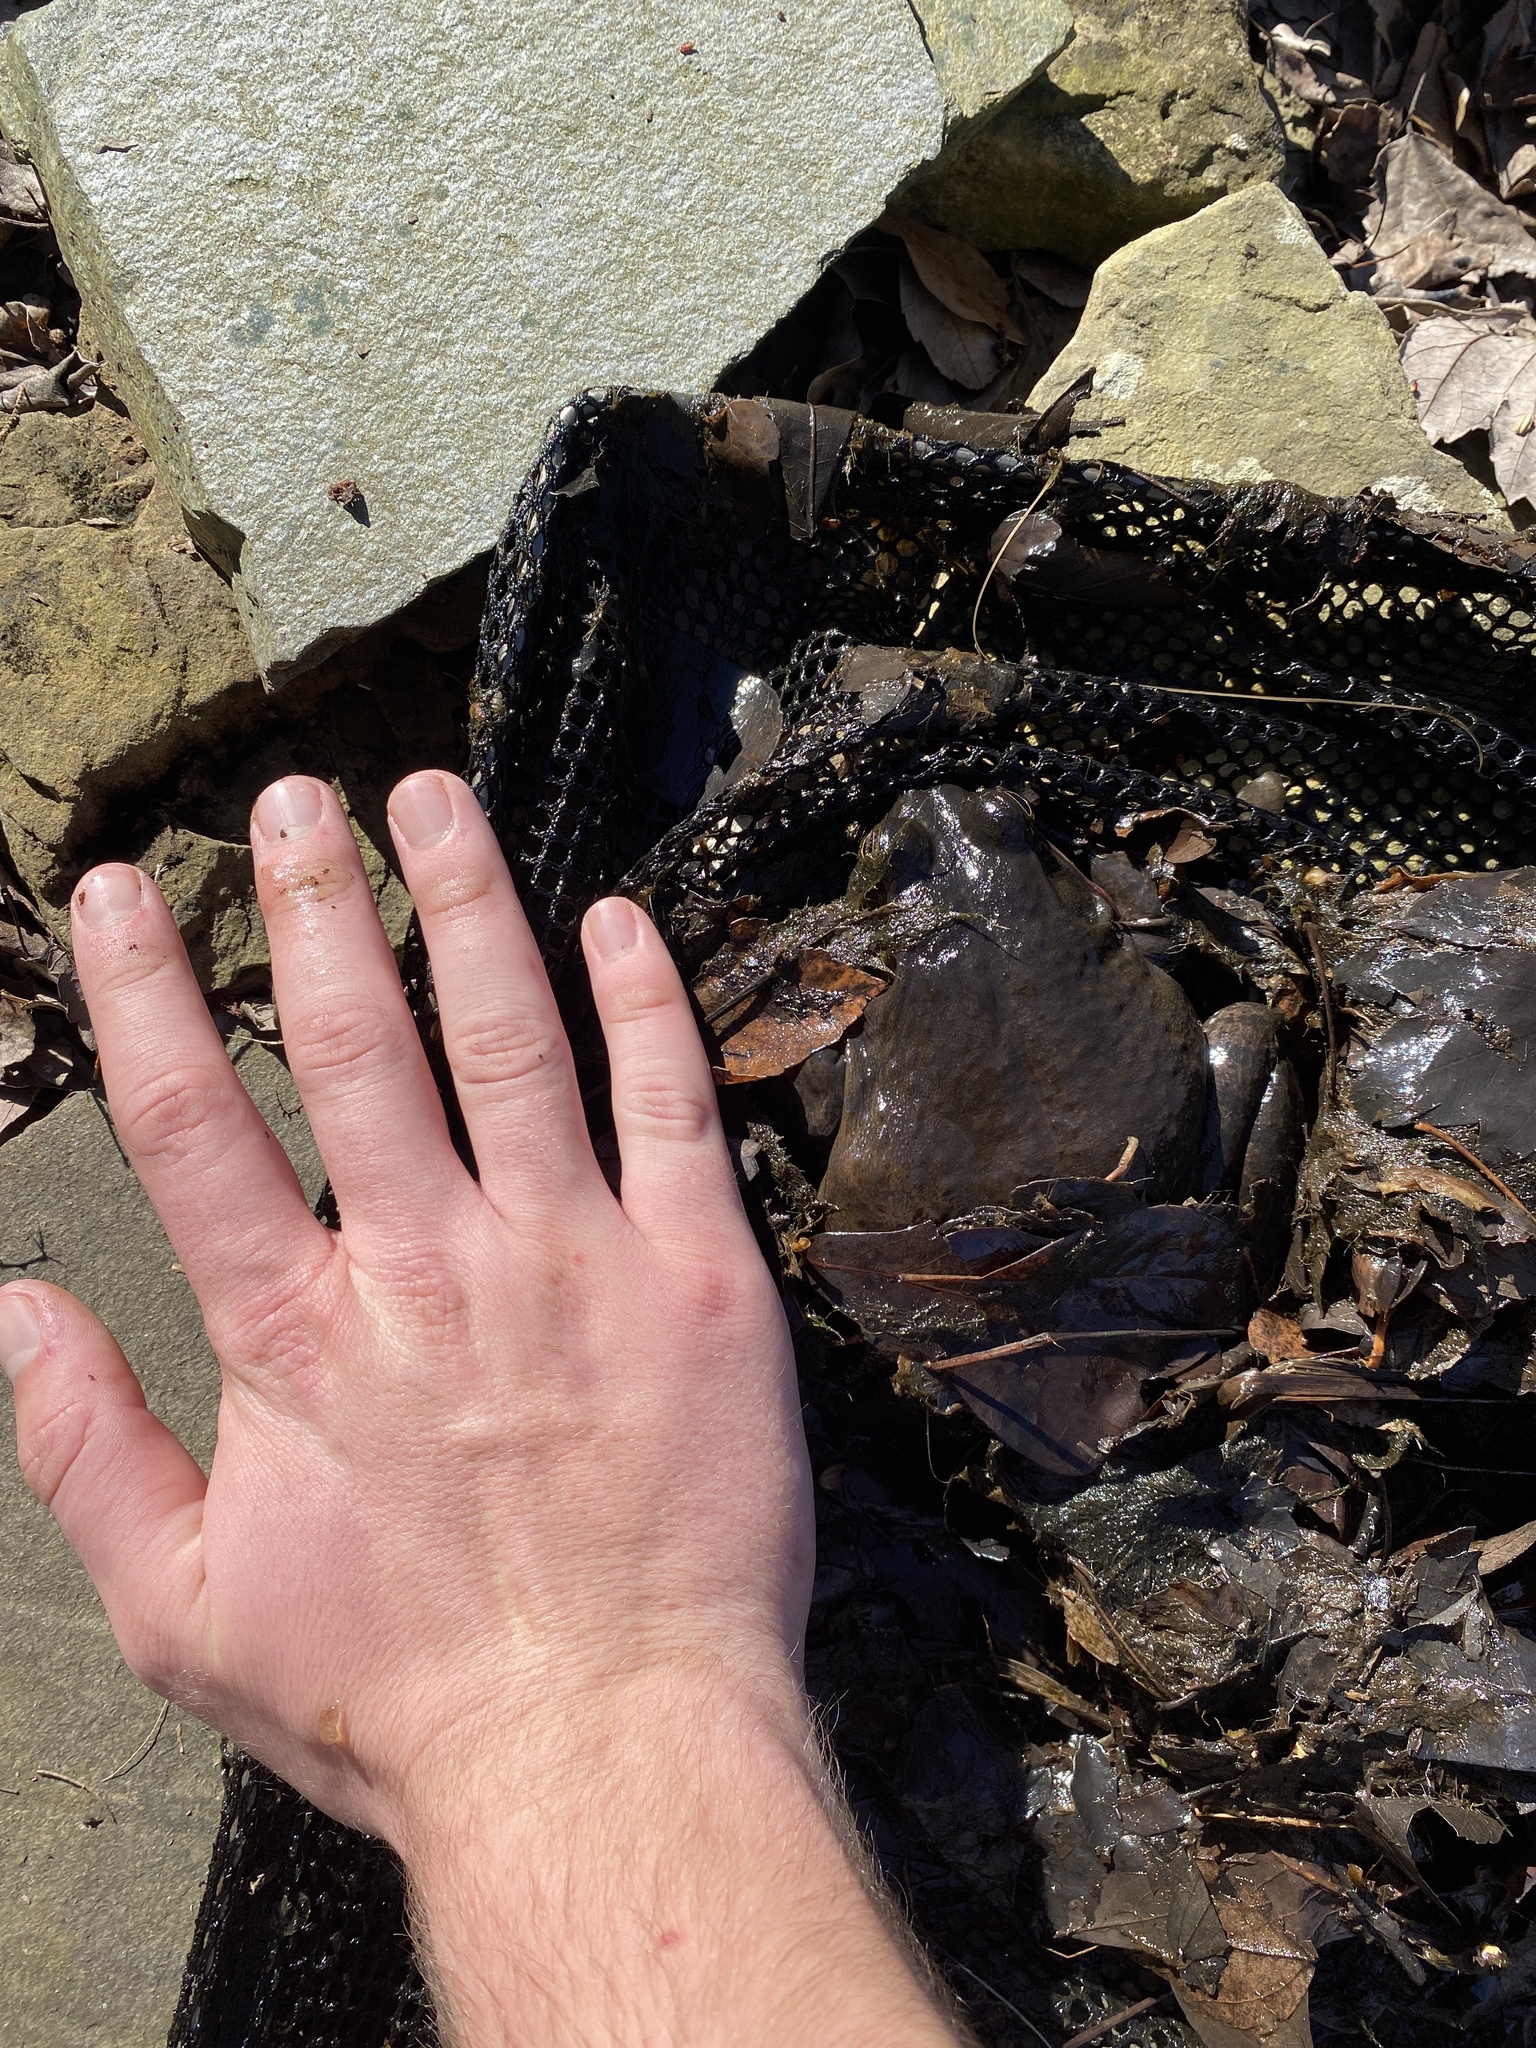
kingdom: Animalia
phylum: Chordata
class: Amphibia
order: Anura
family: Ranidae
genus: Lithobates
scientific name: Lithobates catesbeianus
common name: American bullfrog
